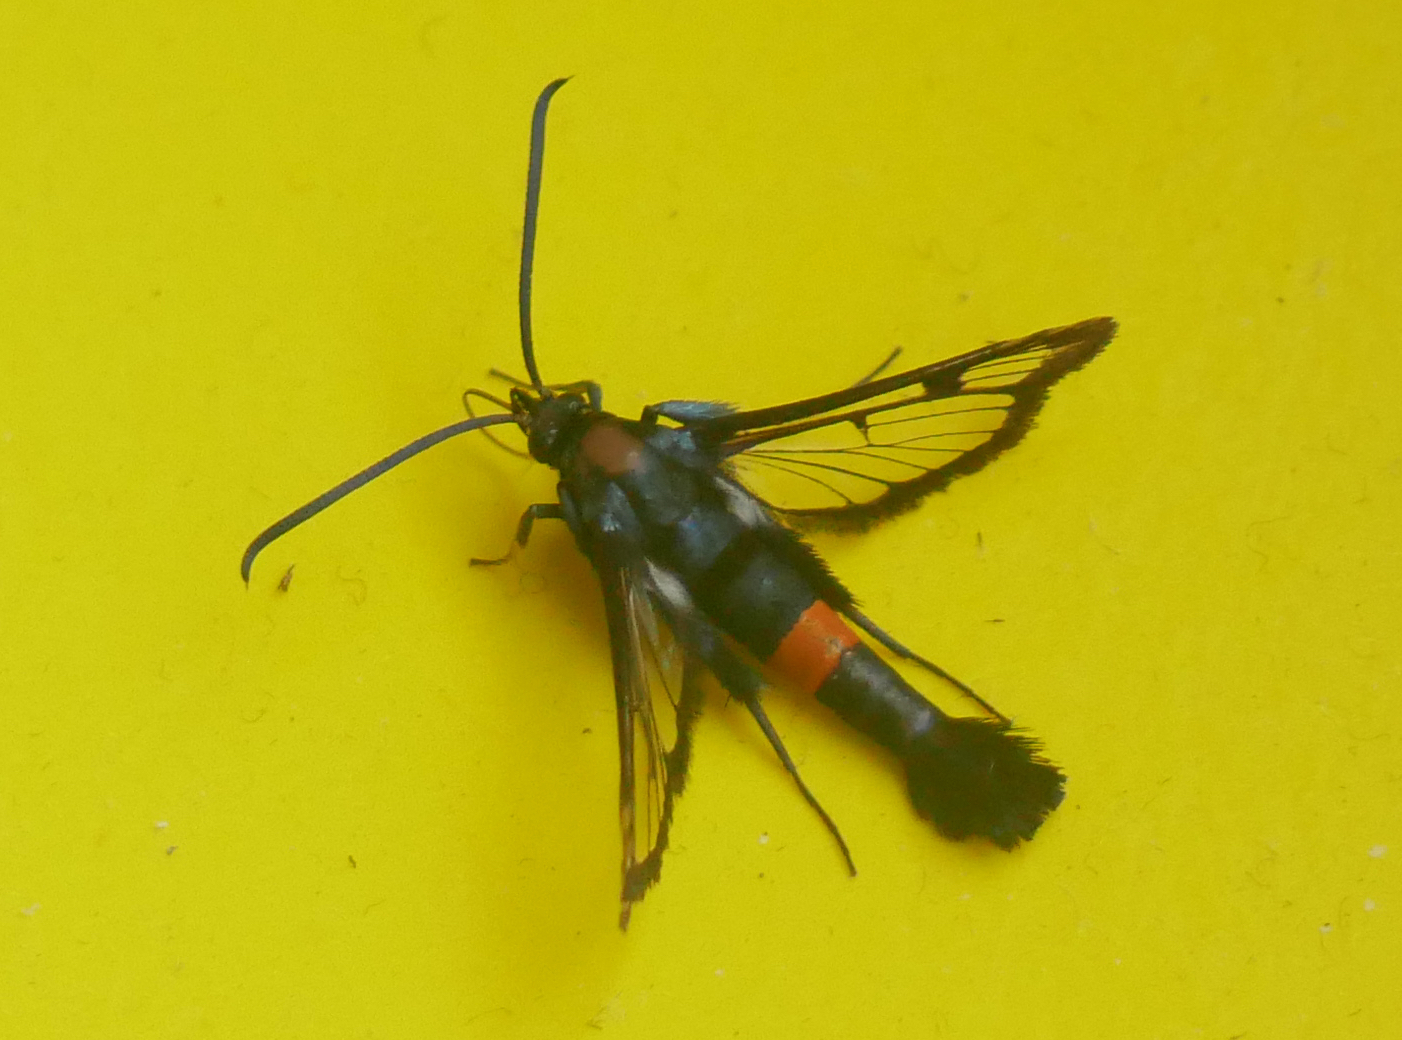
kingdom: Animalia
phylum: Arthropoda
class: Insecta
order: Lepidoptera
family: Sesiidae
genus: Synanthedon
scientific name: Synanthedon myopaeformis
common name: Red-belted clearwing
